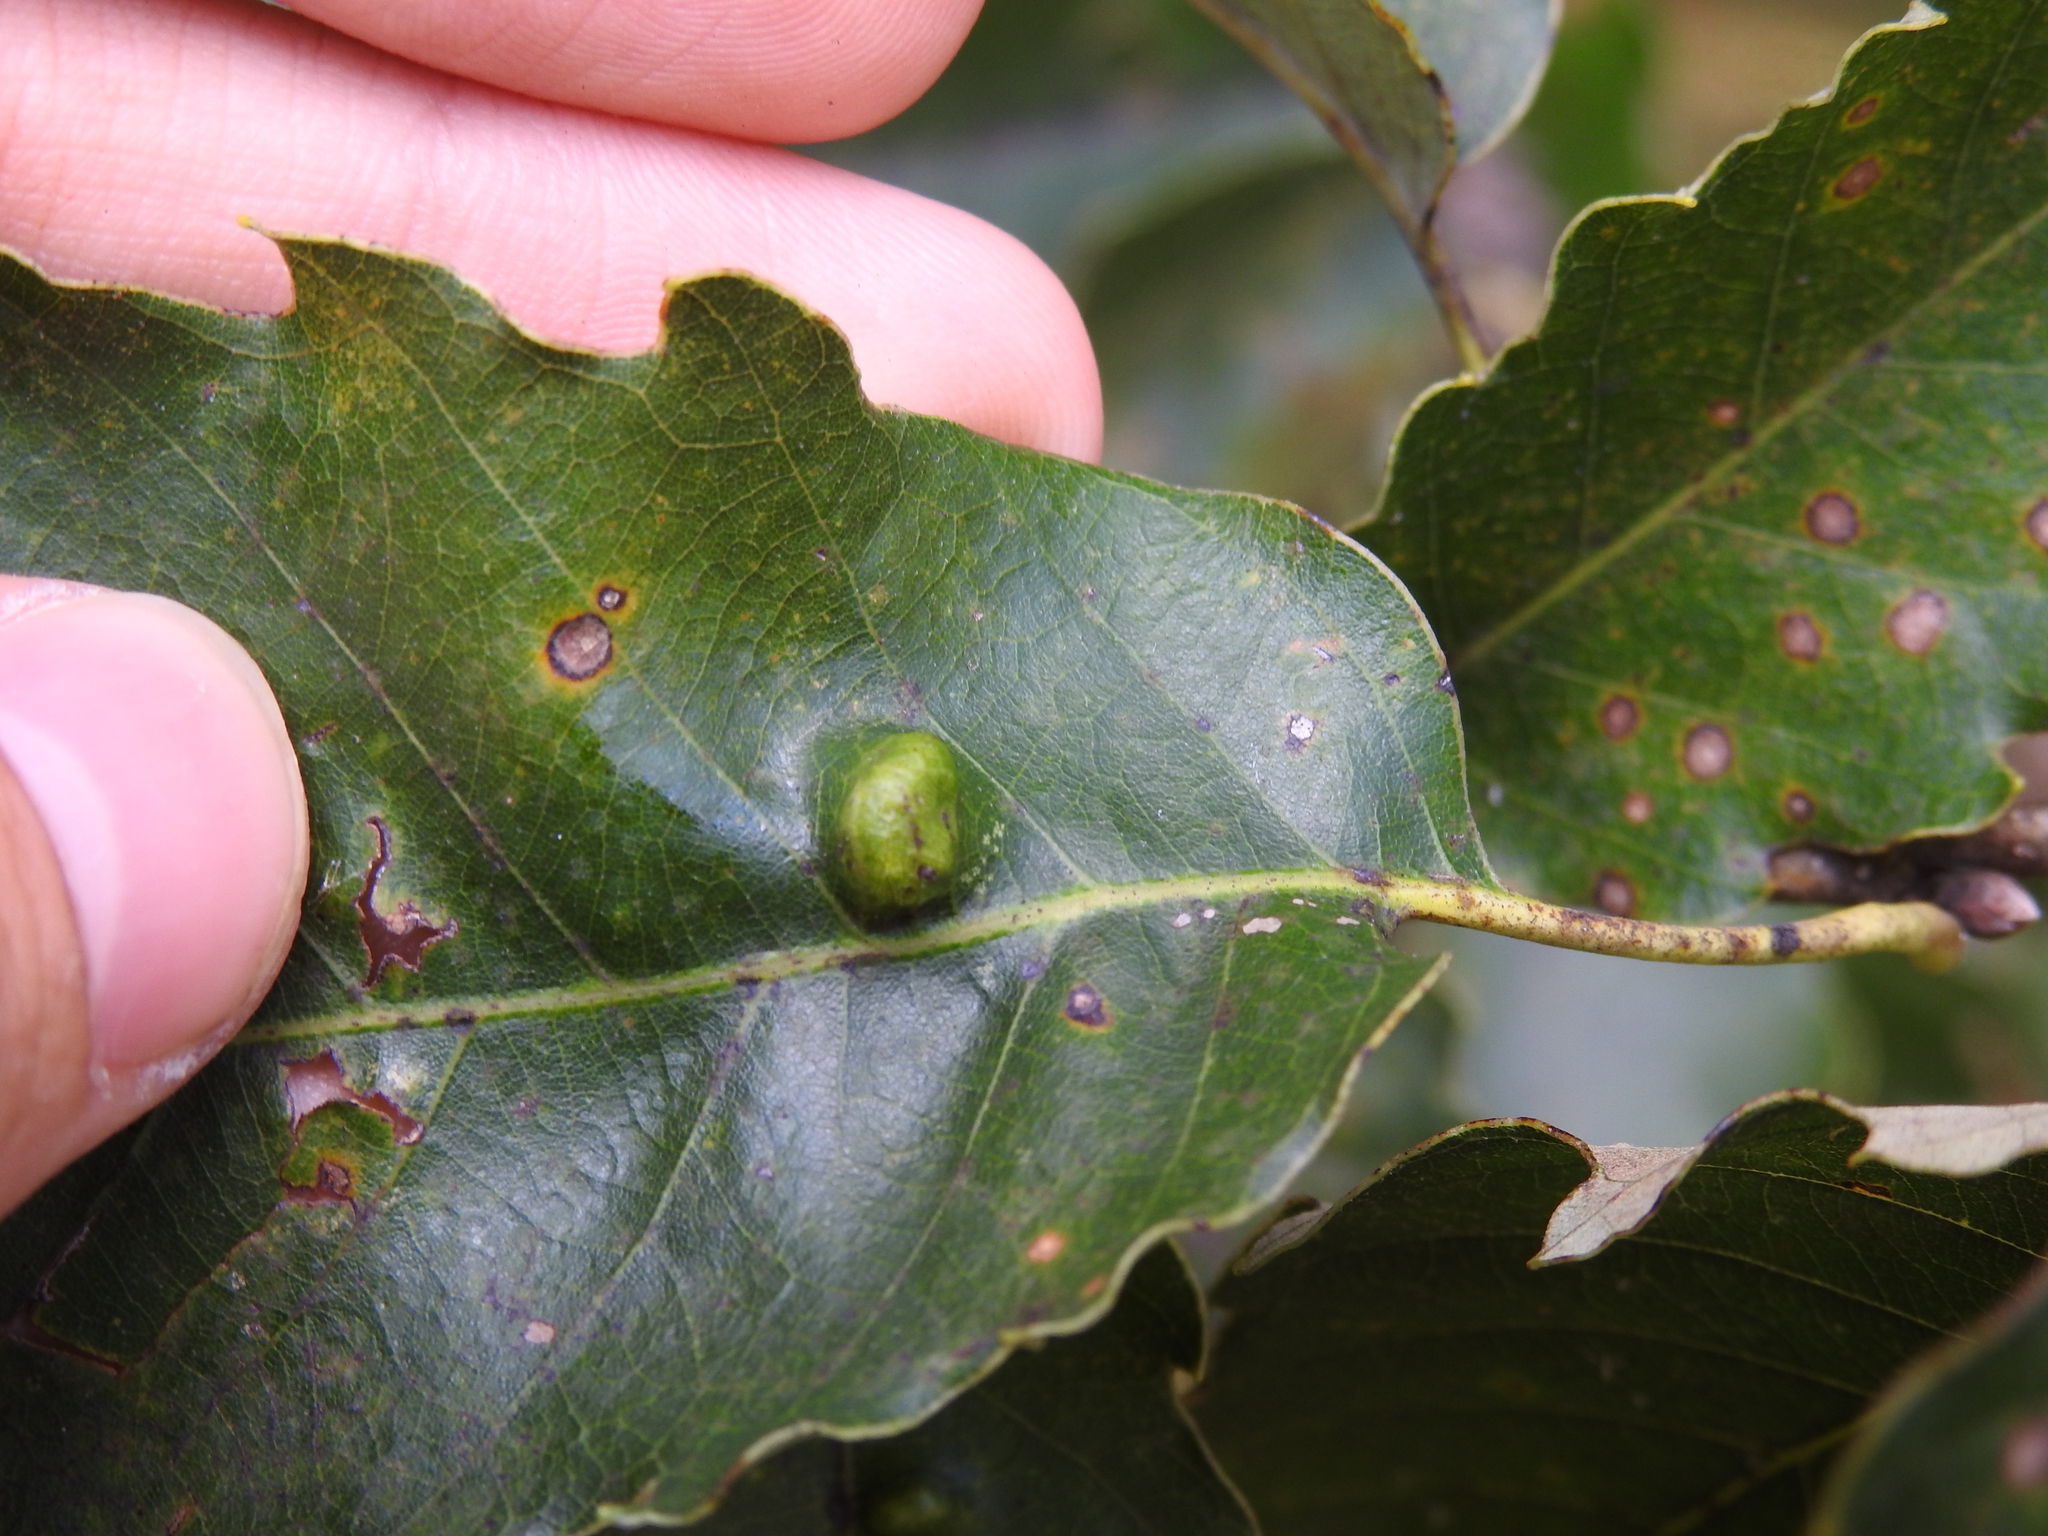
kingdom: Animalia
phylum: Arthropoda
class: Arachnida
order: Trombidiformes
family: Eriophyidae
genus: Aceria
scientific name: Aceria
